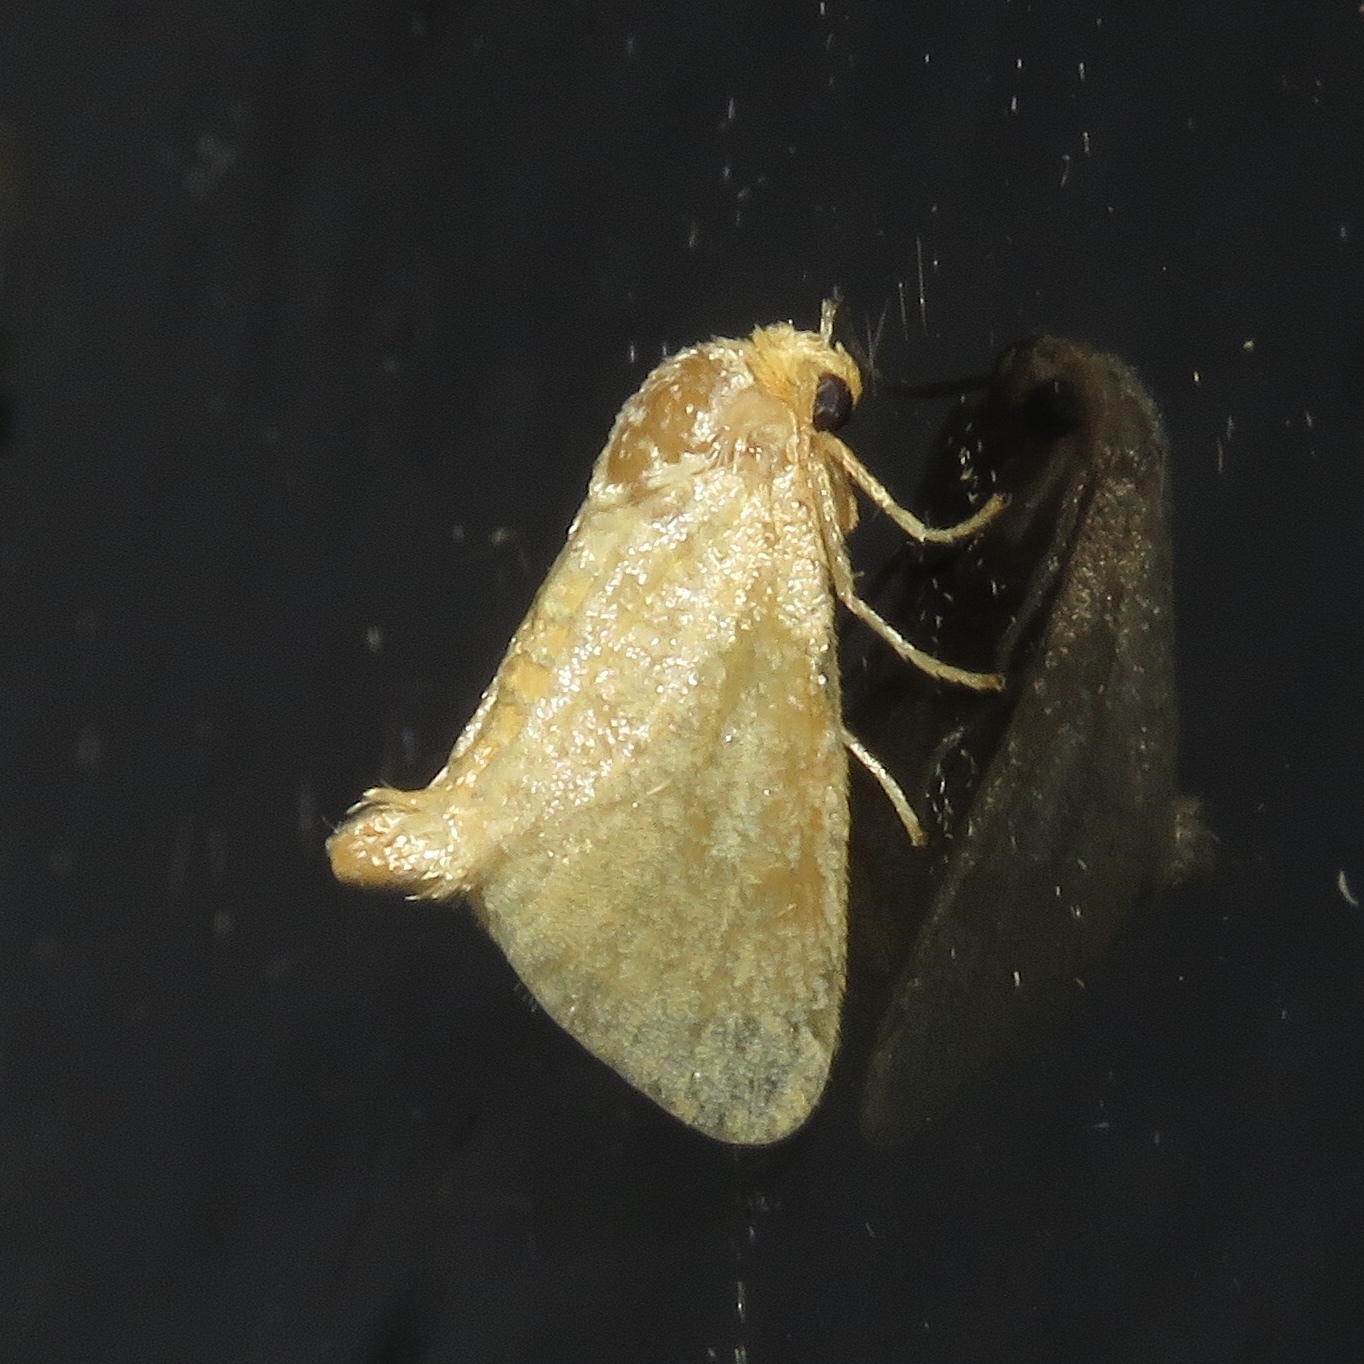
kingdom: Animalia
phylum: Arthropoda
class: Insecta
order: Lepidoptera
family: Limacodidae
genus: Tortricidia
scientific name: Tortricidia pallida
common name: Red-crossed button slug moth
